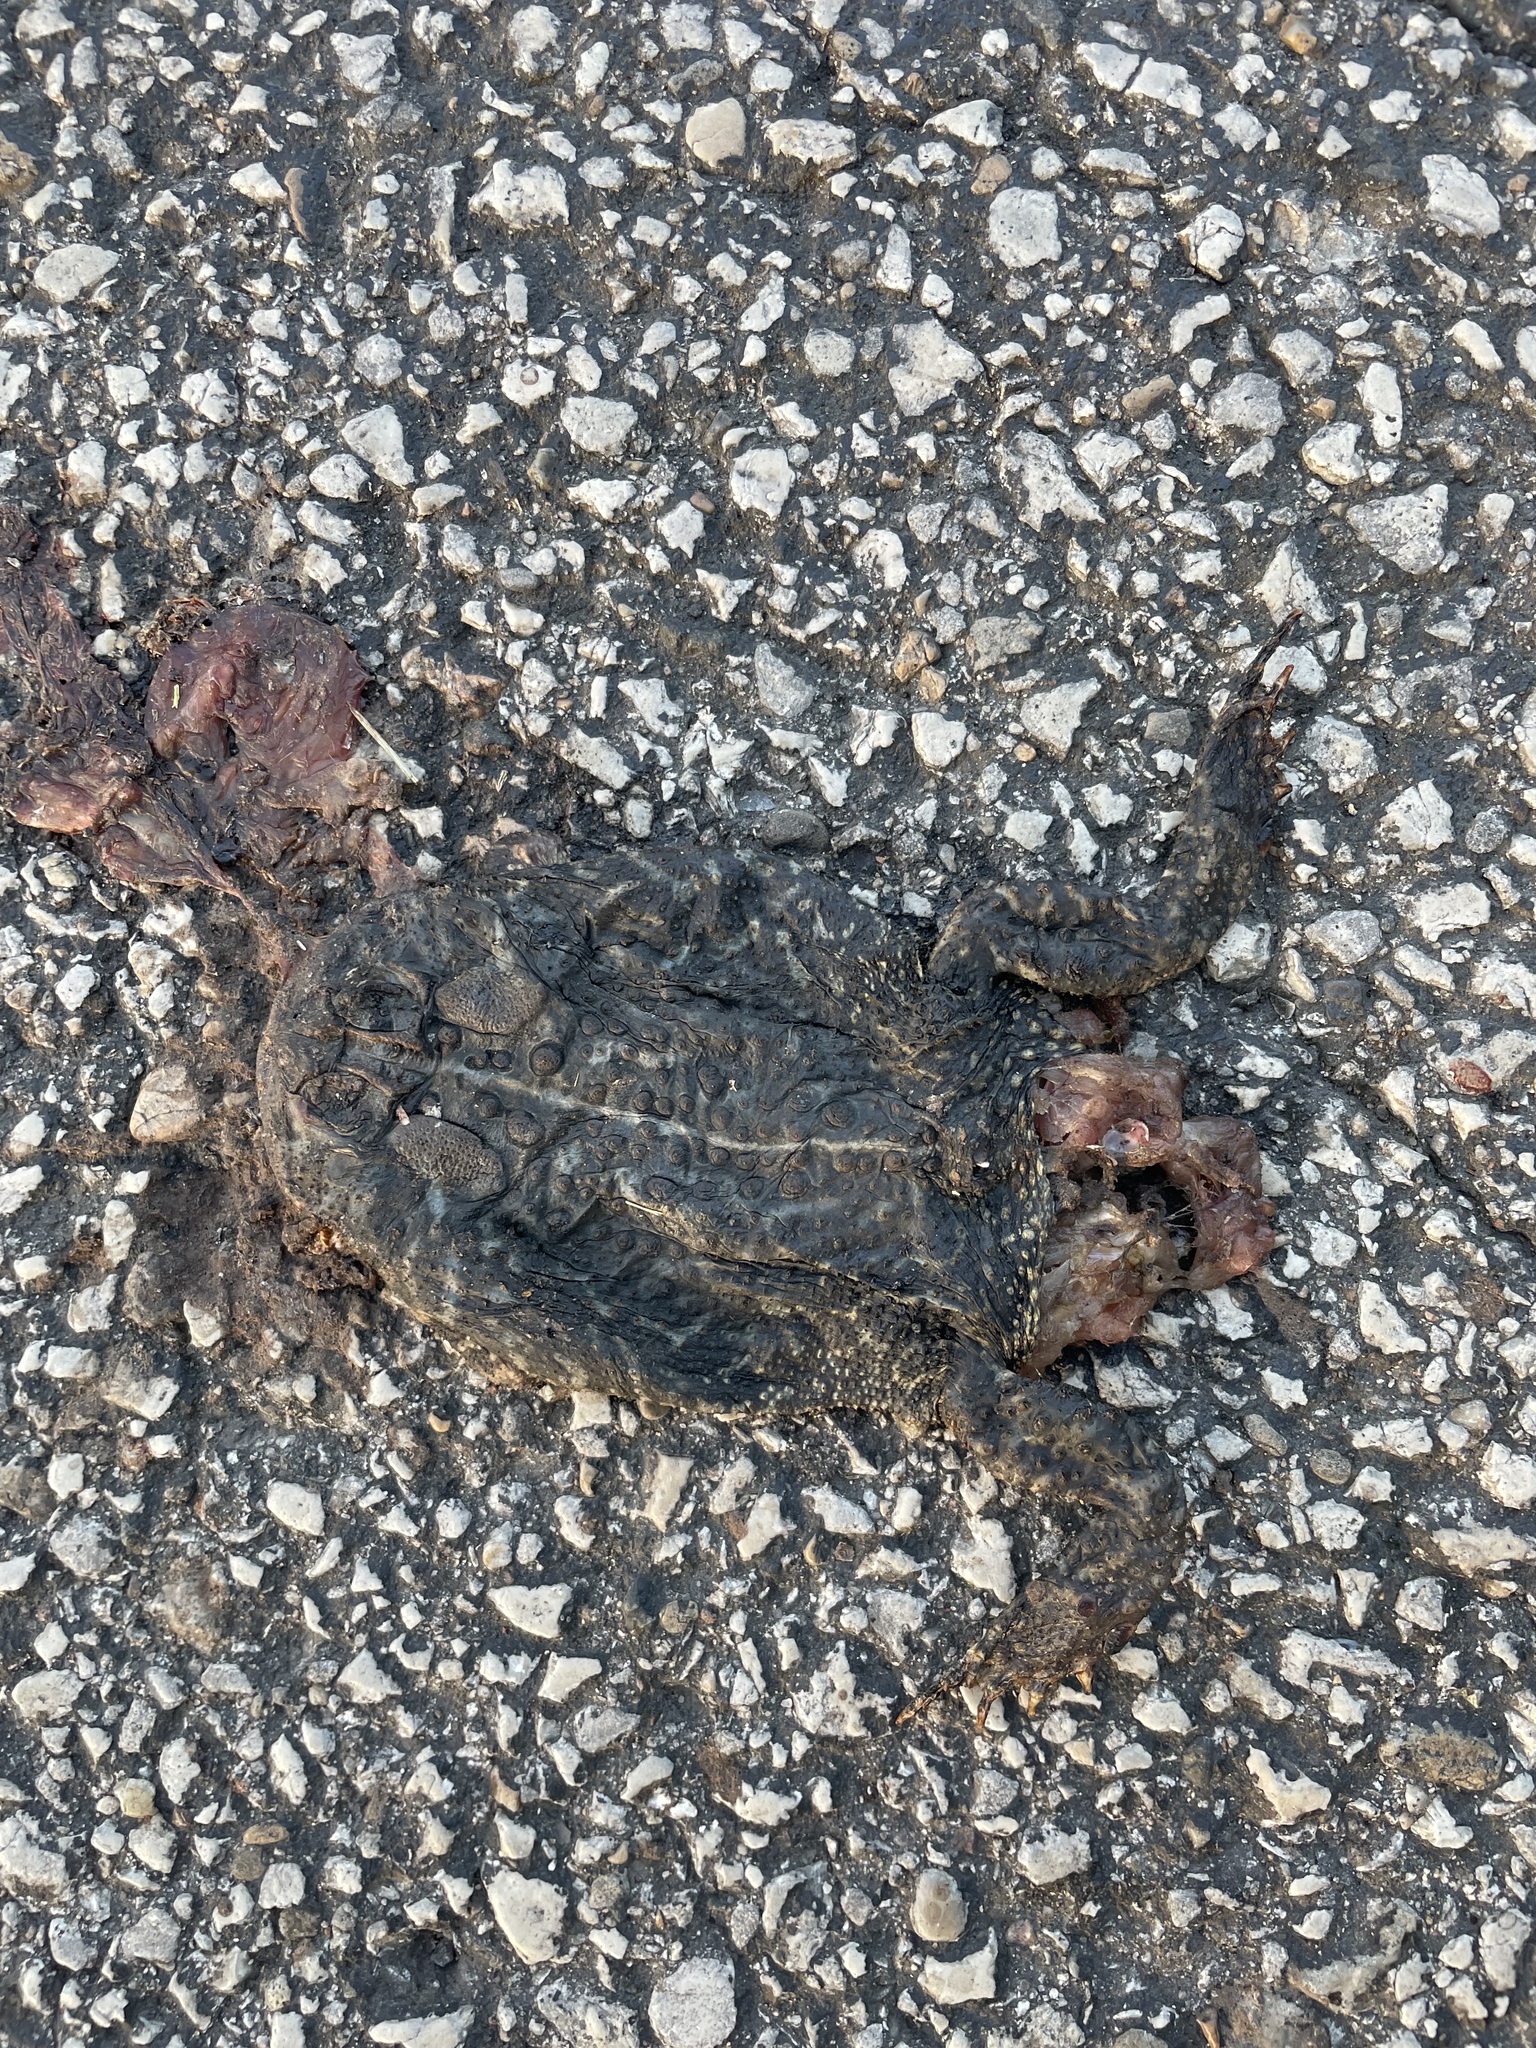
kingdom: Animalia
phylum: Chordata
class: Amphibia
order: Anura
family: Bufonidae
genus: Anaxyrus
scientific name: Anaxyrus americanus
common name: American toad
